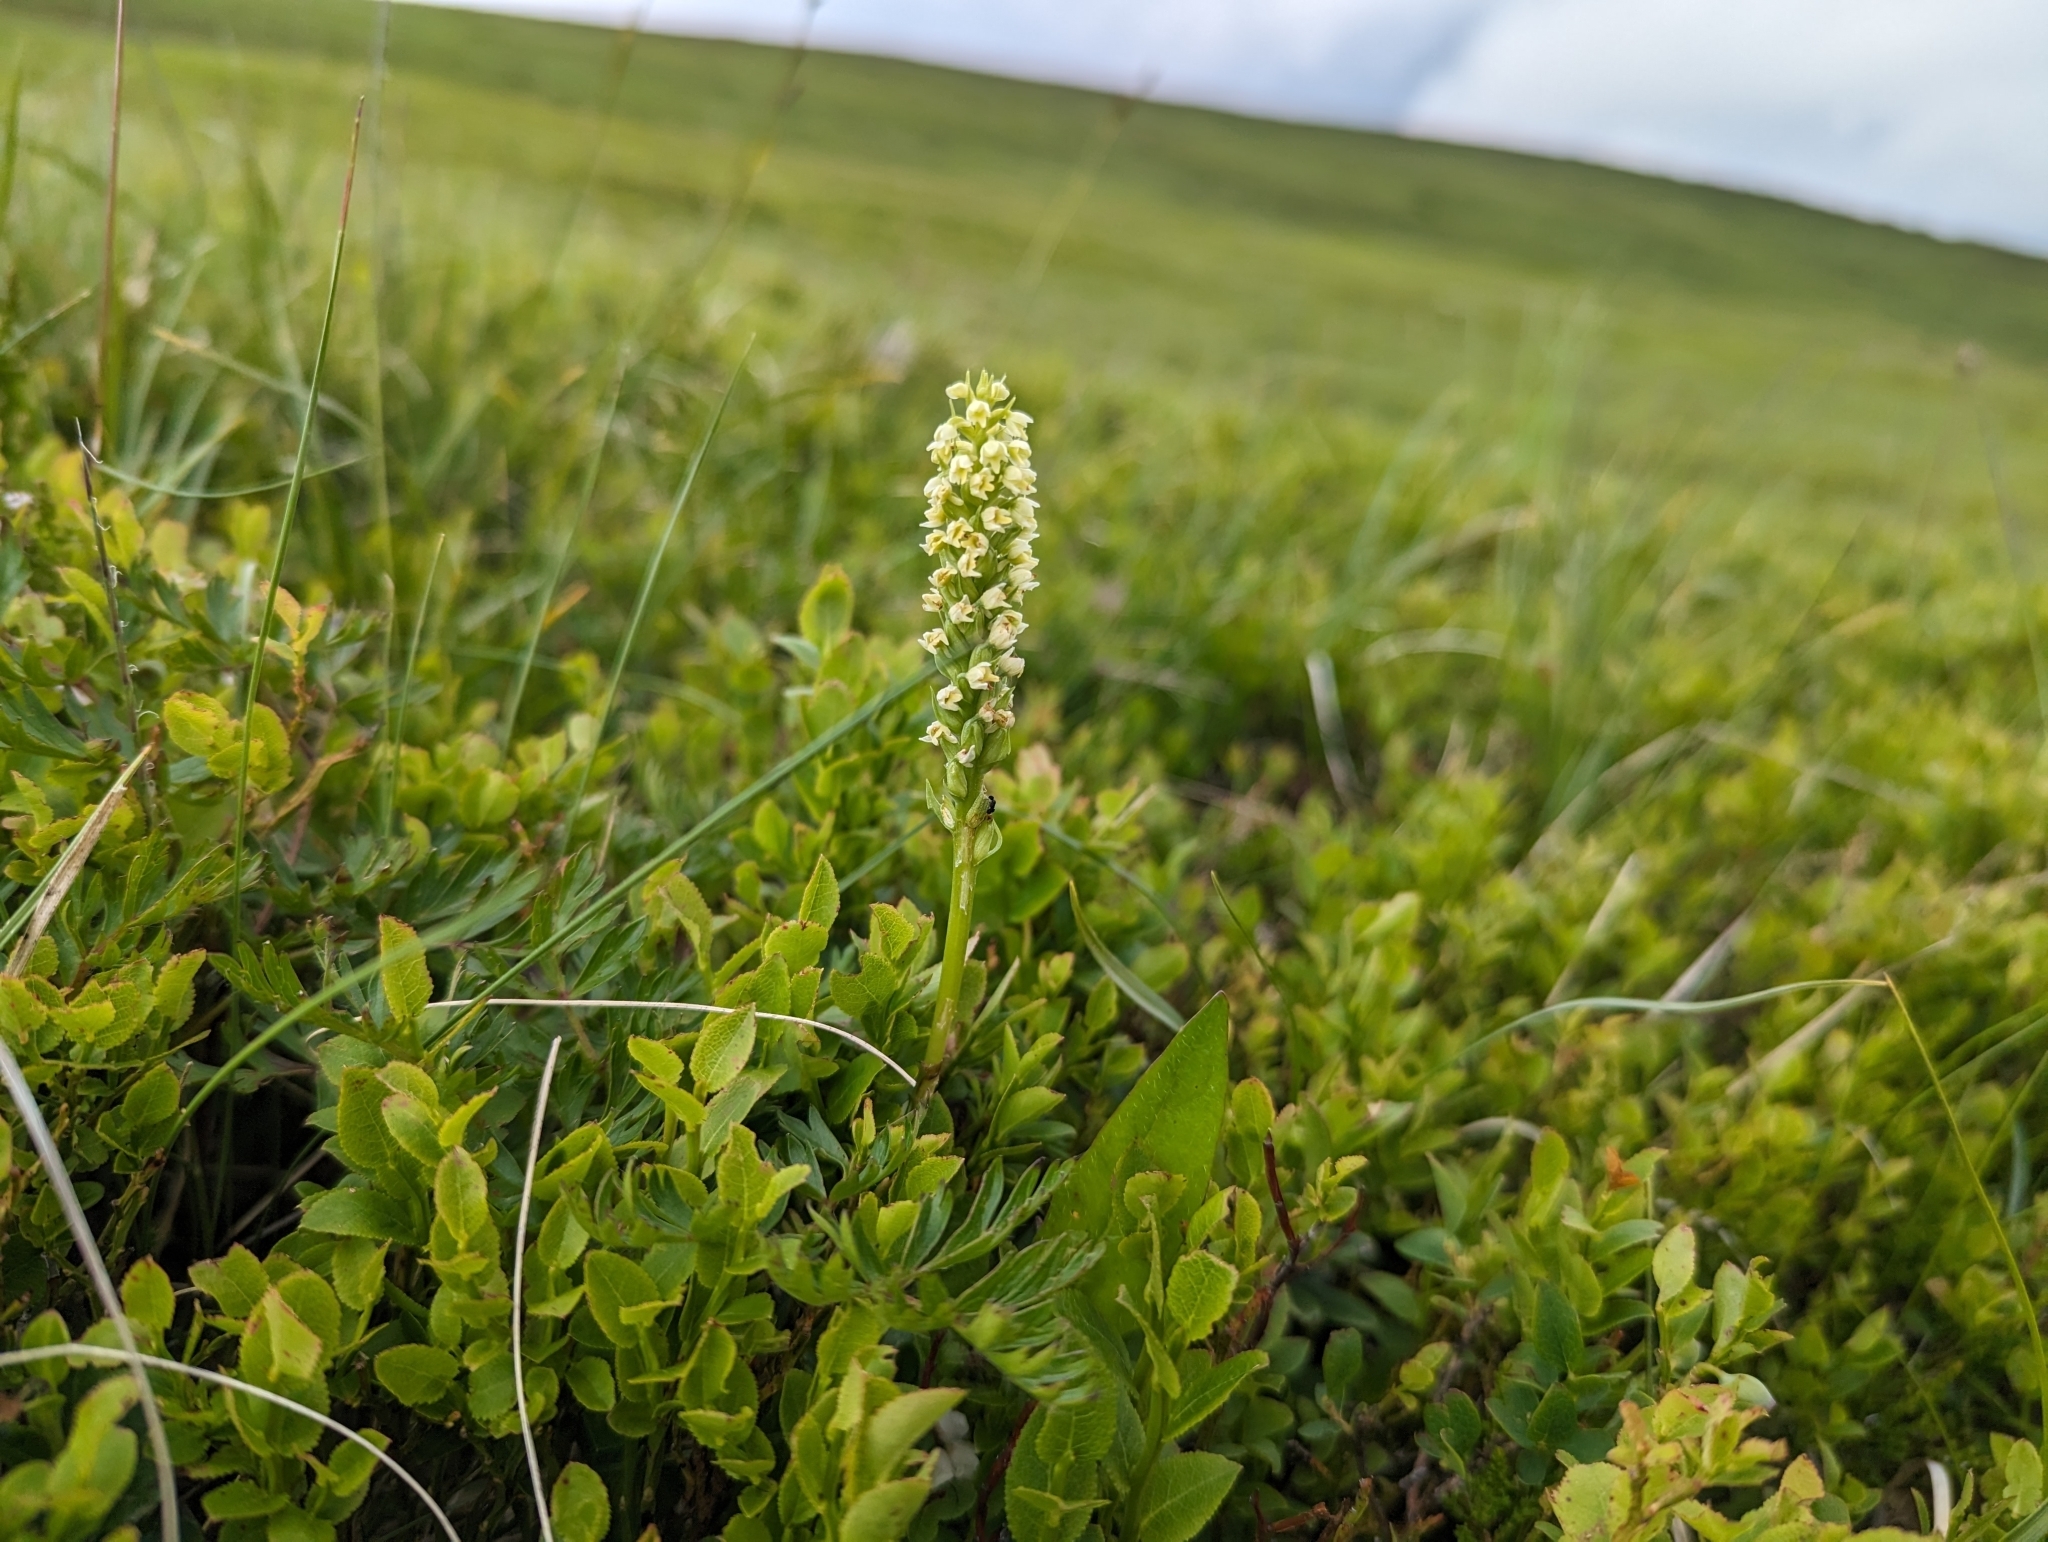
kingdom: Plantae
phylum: Tracheophyta
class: Liliopsida
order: Asparagales
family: Orchidaceae
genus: Pseudorchis
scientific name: Pseudorchis albida
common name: Small-white orchid
